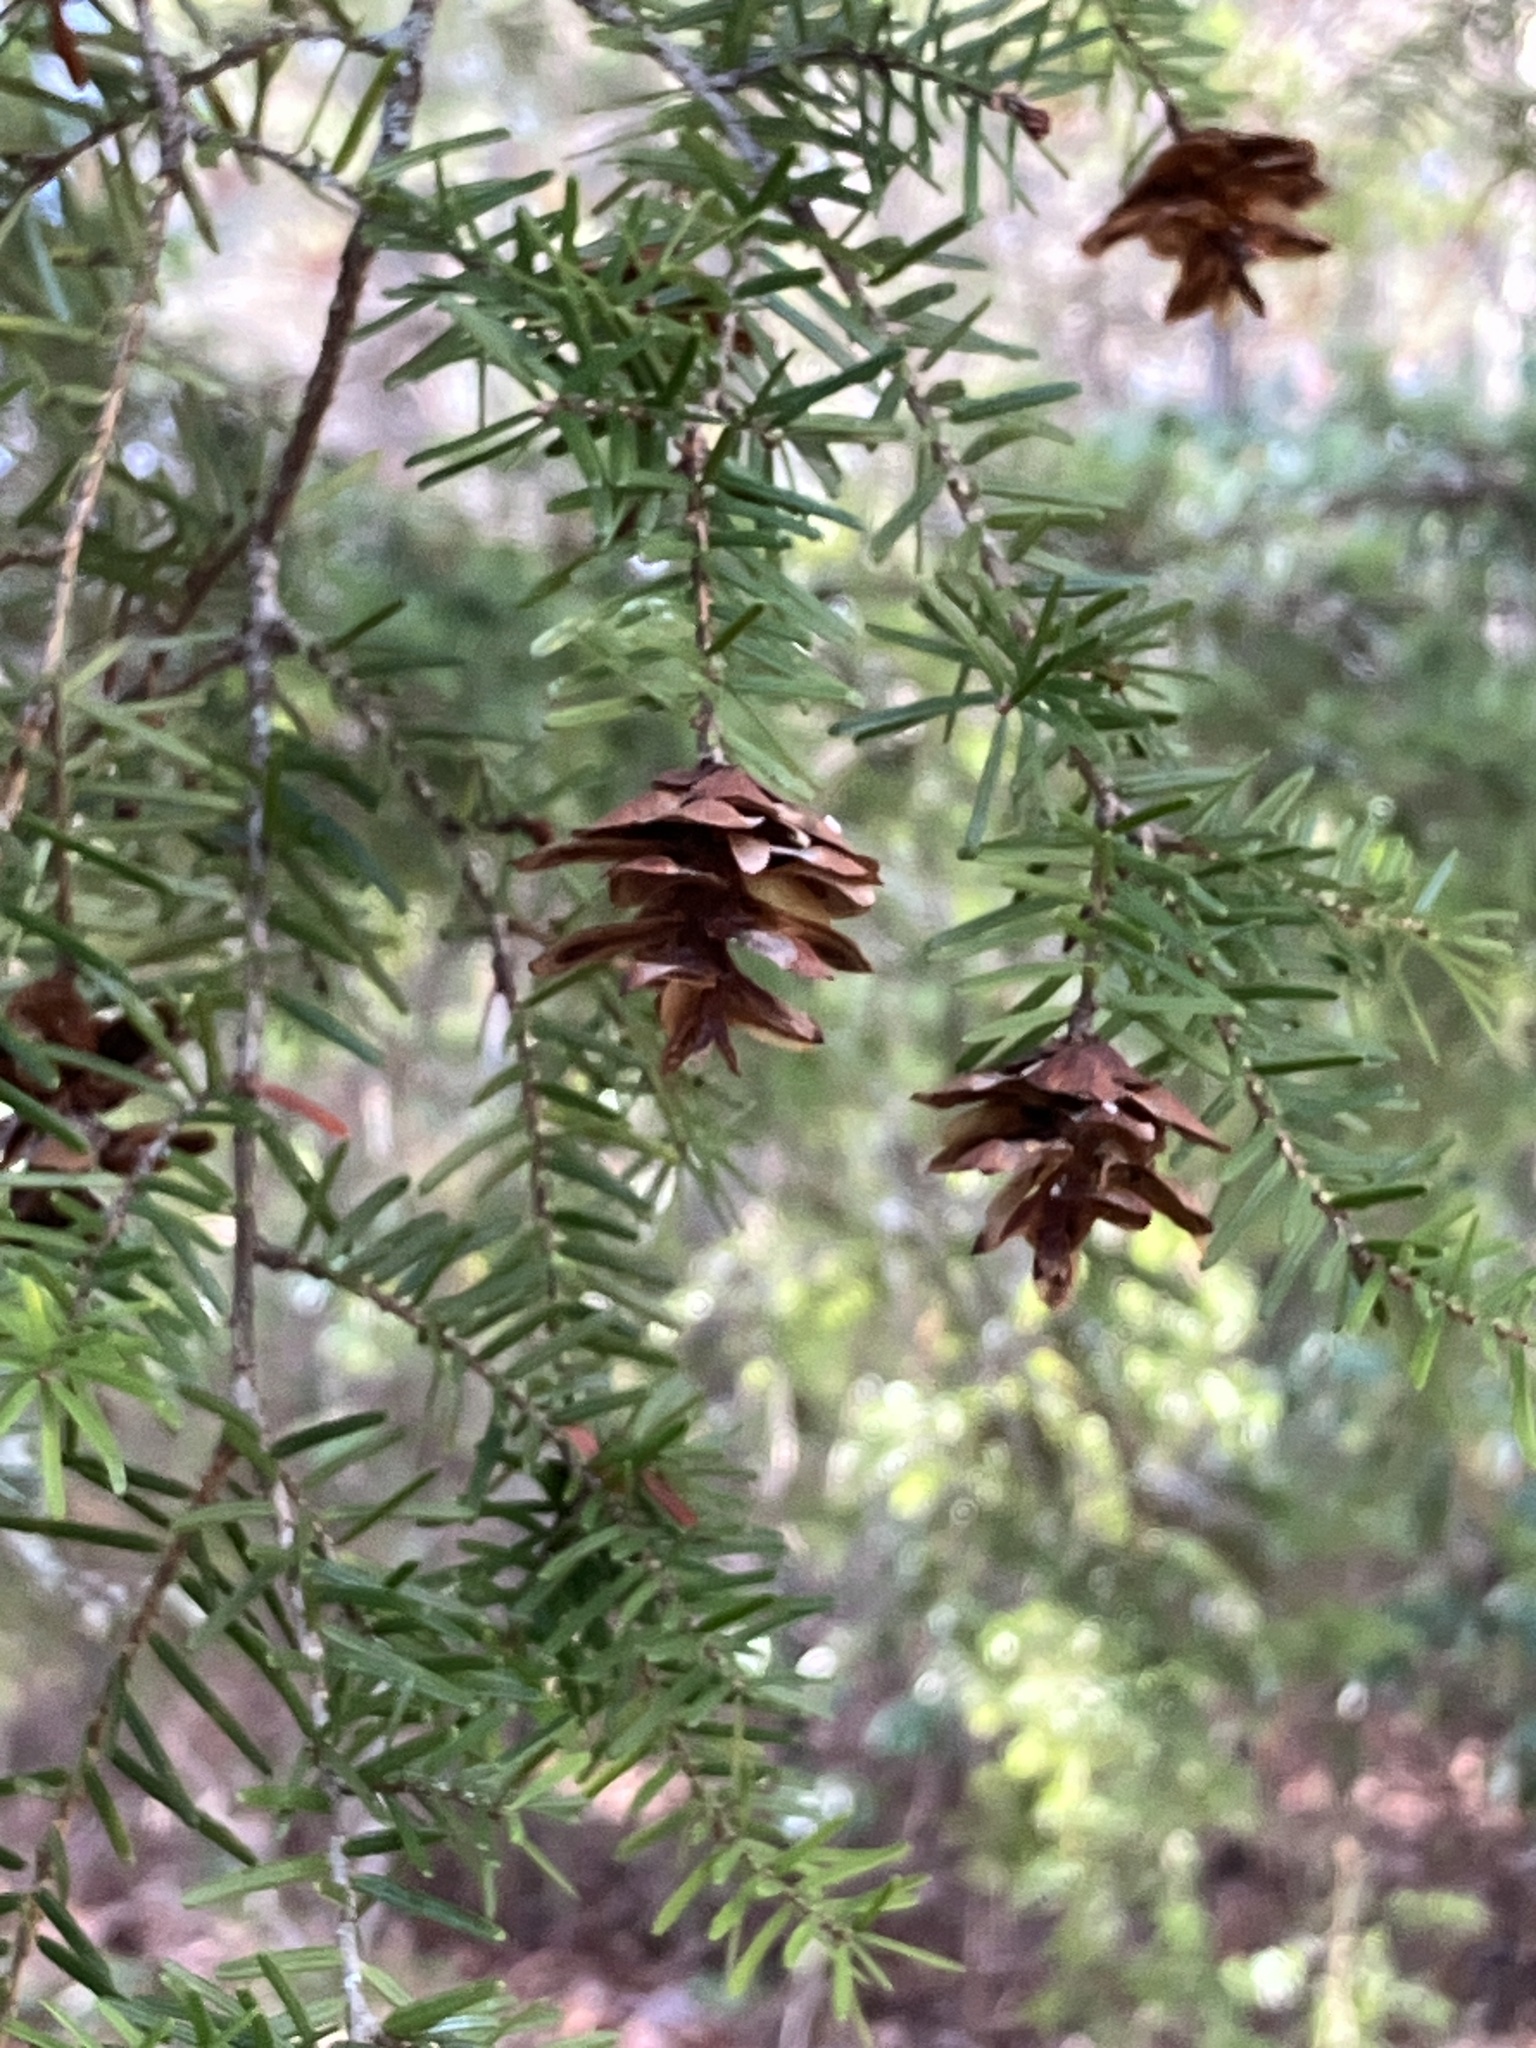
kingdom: Plantae
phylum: Tracheophyta
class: Pinopsida
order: Pinales
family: Pinaceae
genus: Tsuga
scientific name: Tsuga caroliniana
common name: Carolina hemlock
